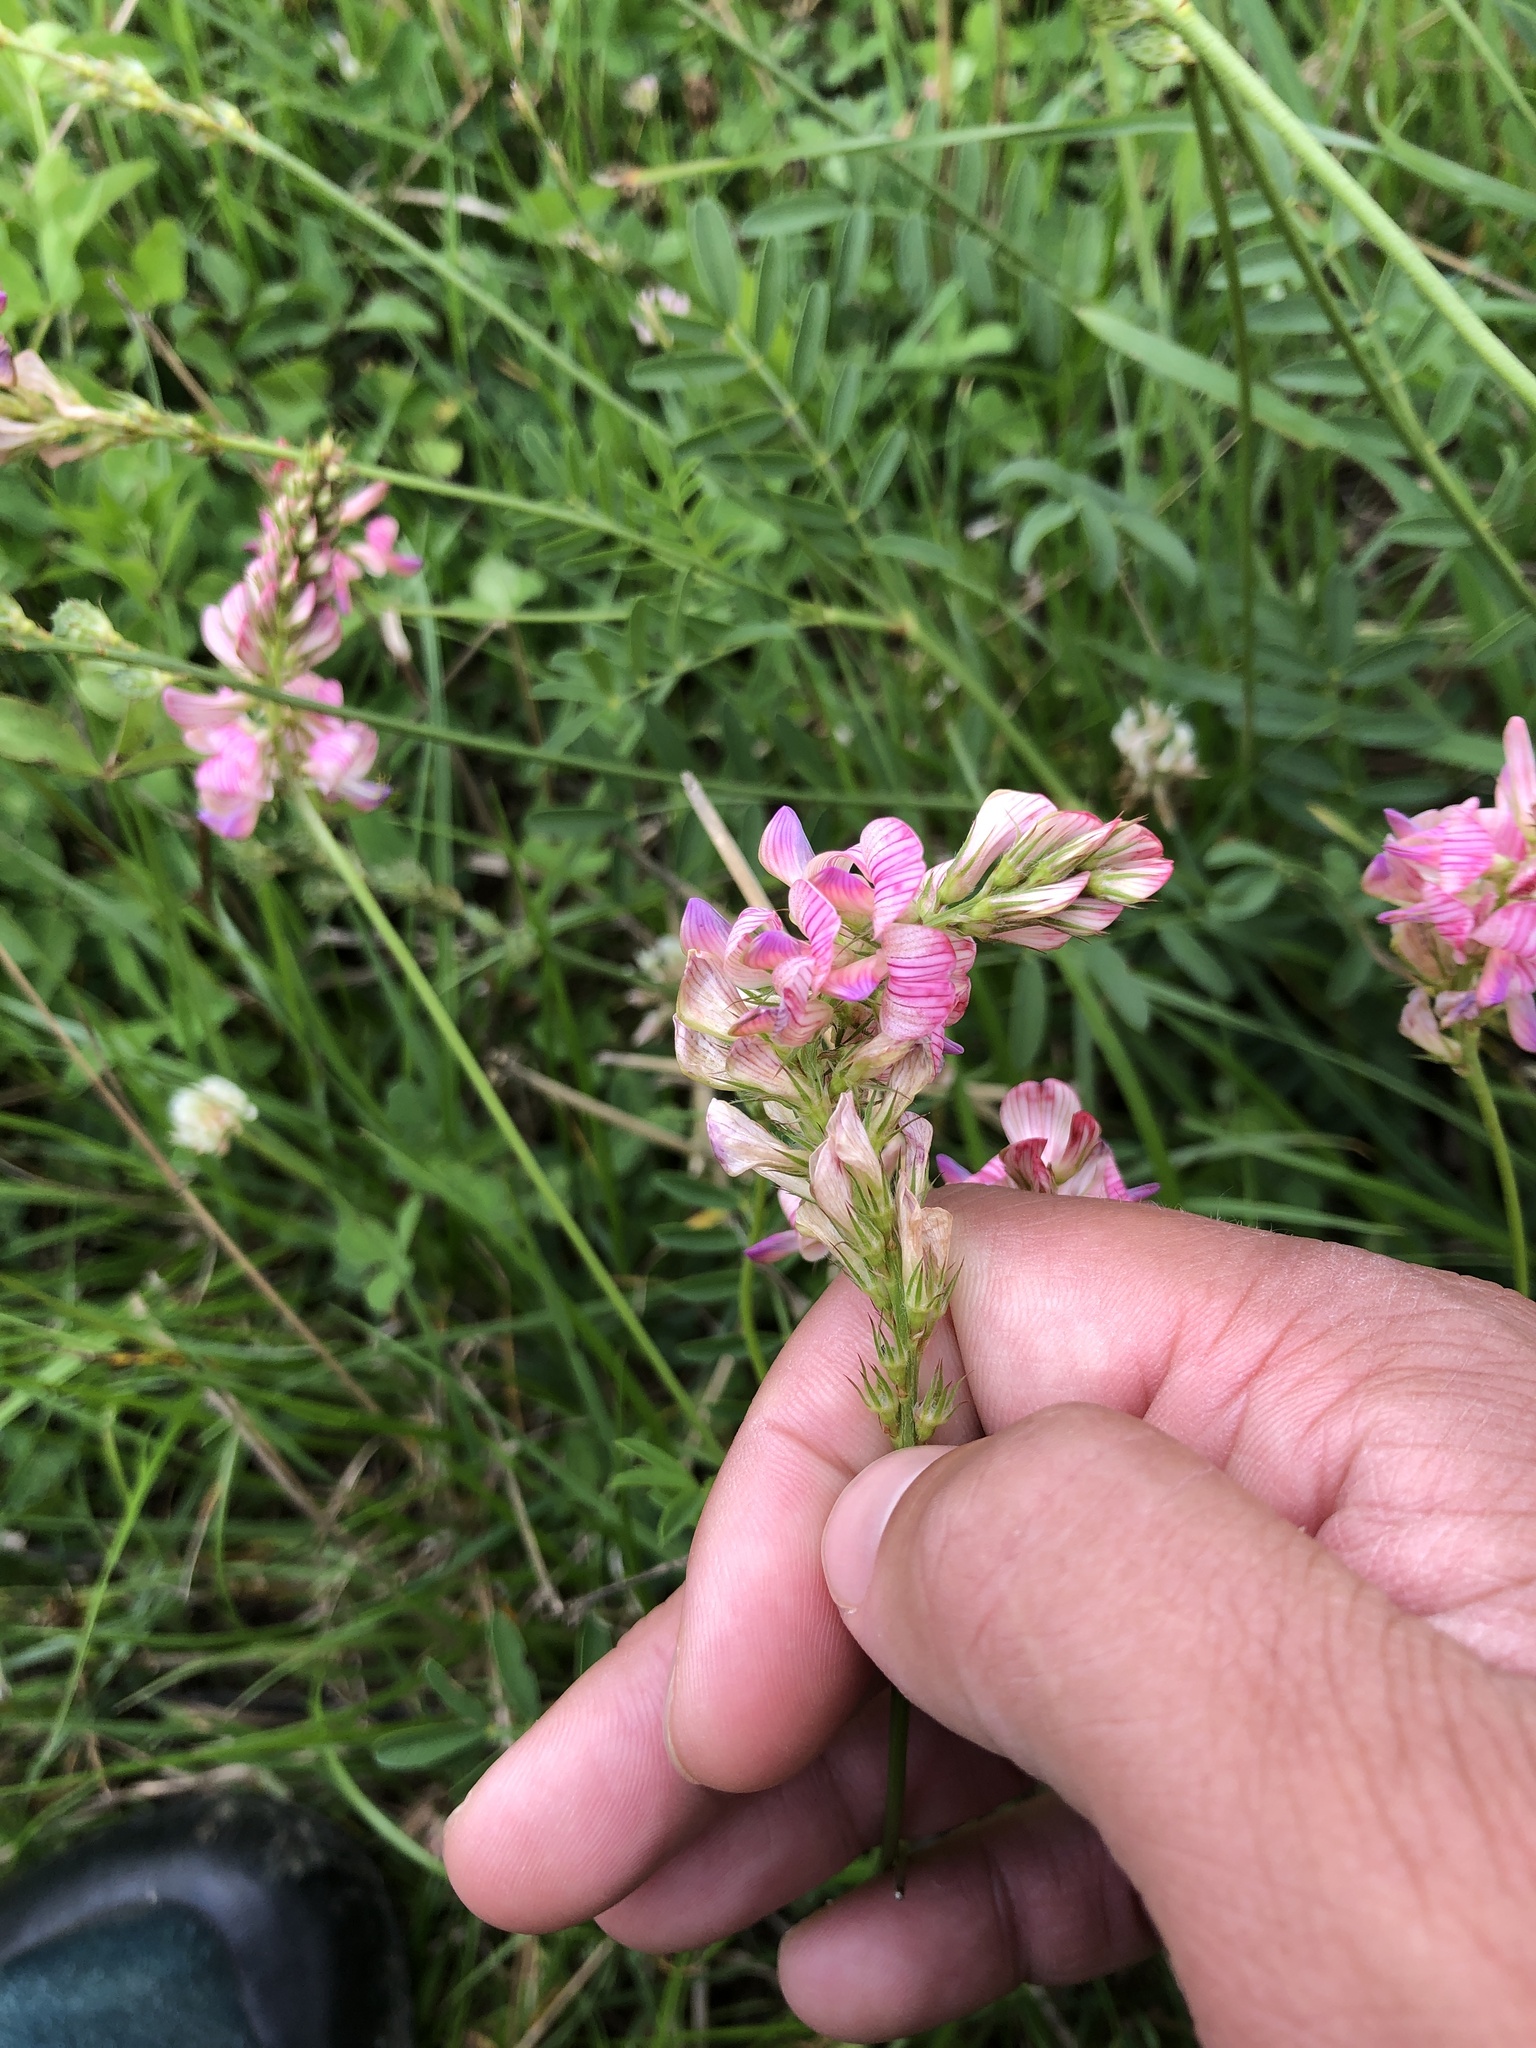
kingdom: Plantae
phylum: Tracheophyta
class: Magnoliopsida
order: Fabales
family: Fabaceae
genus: Onobrychis
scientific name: Onobrychis viciifolia
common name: Sainfoin
